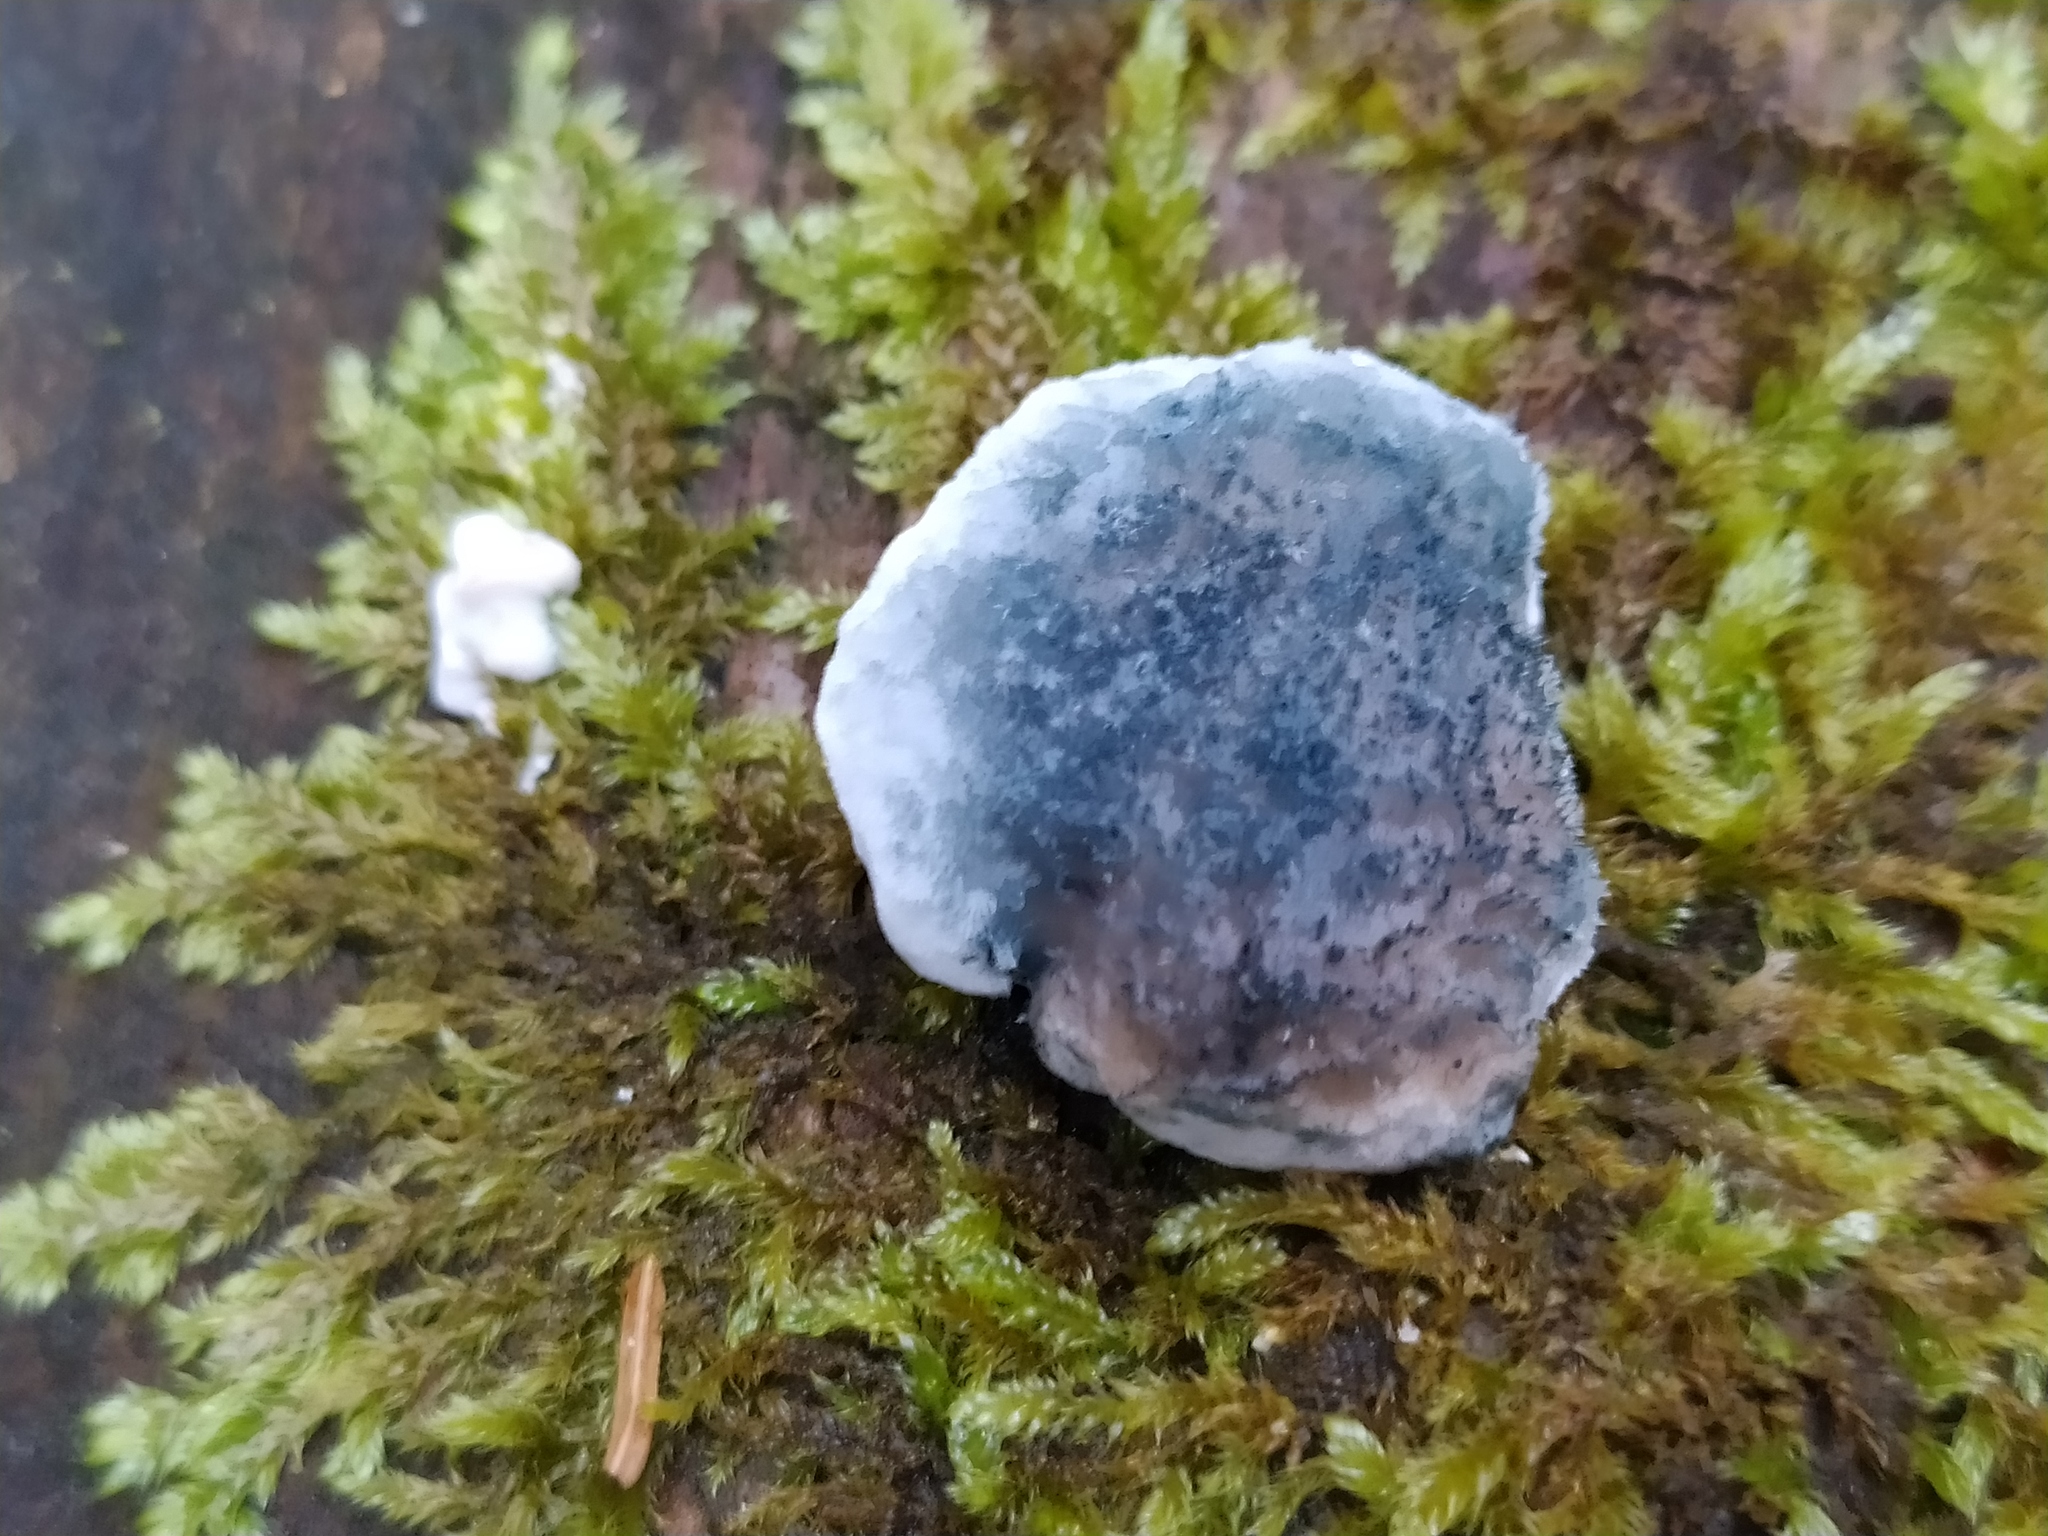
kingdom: Fungi
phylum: Basidiomycota
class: Agaricomycetes
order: Polyporales
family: Polyporaceae
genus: Cyanosporus
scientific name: Cyanosporus caesius
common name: Blue cheese polypore
